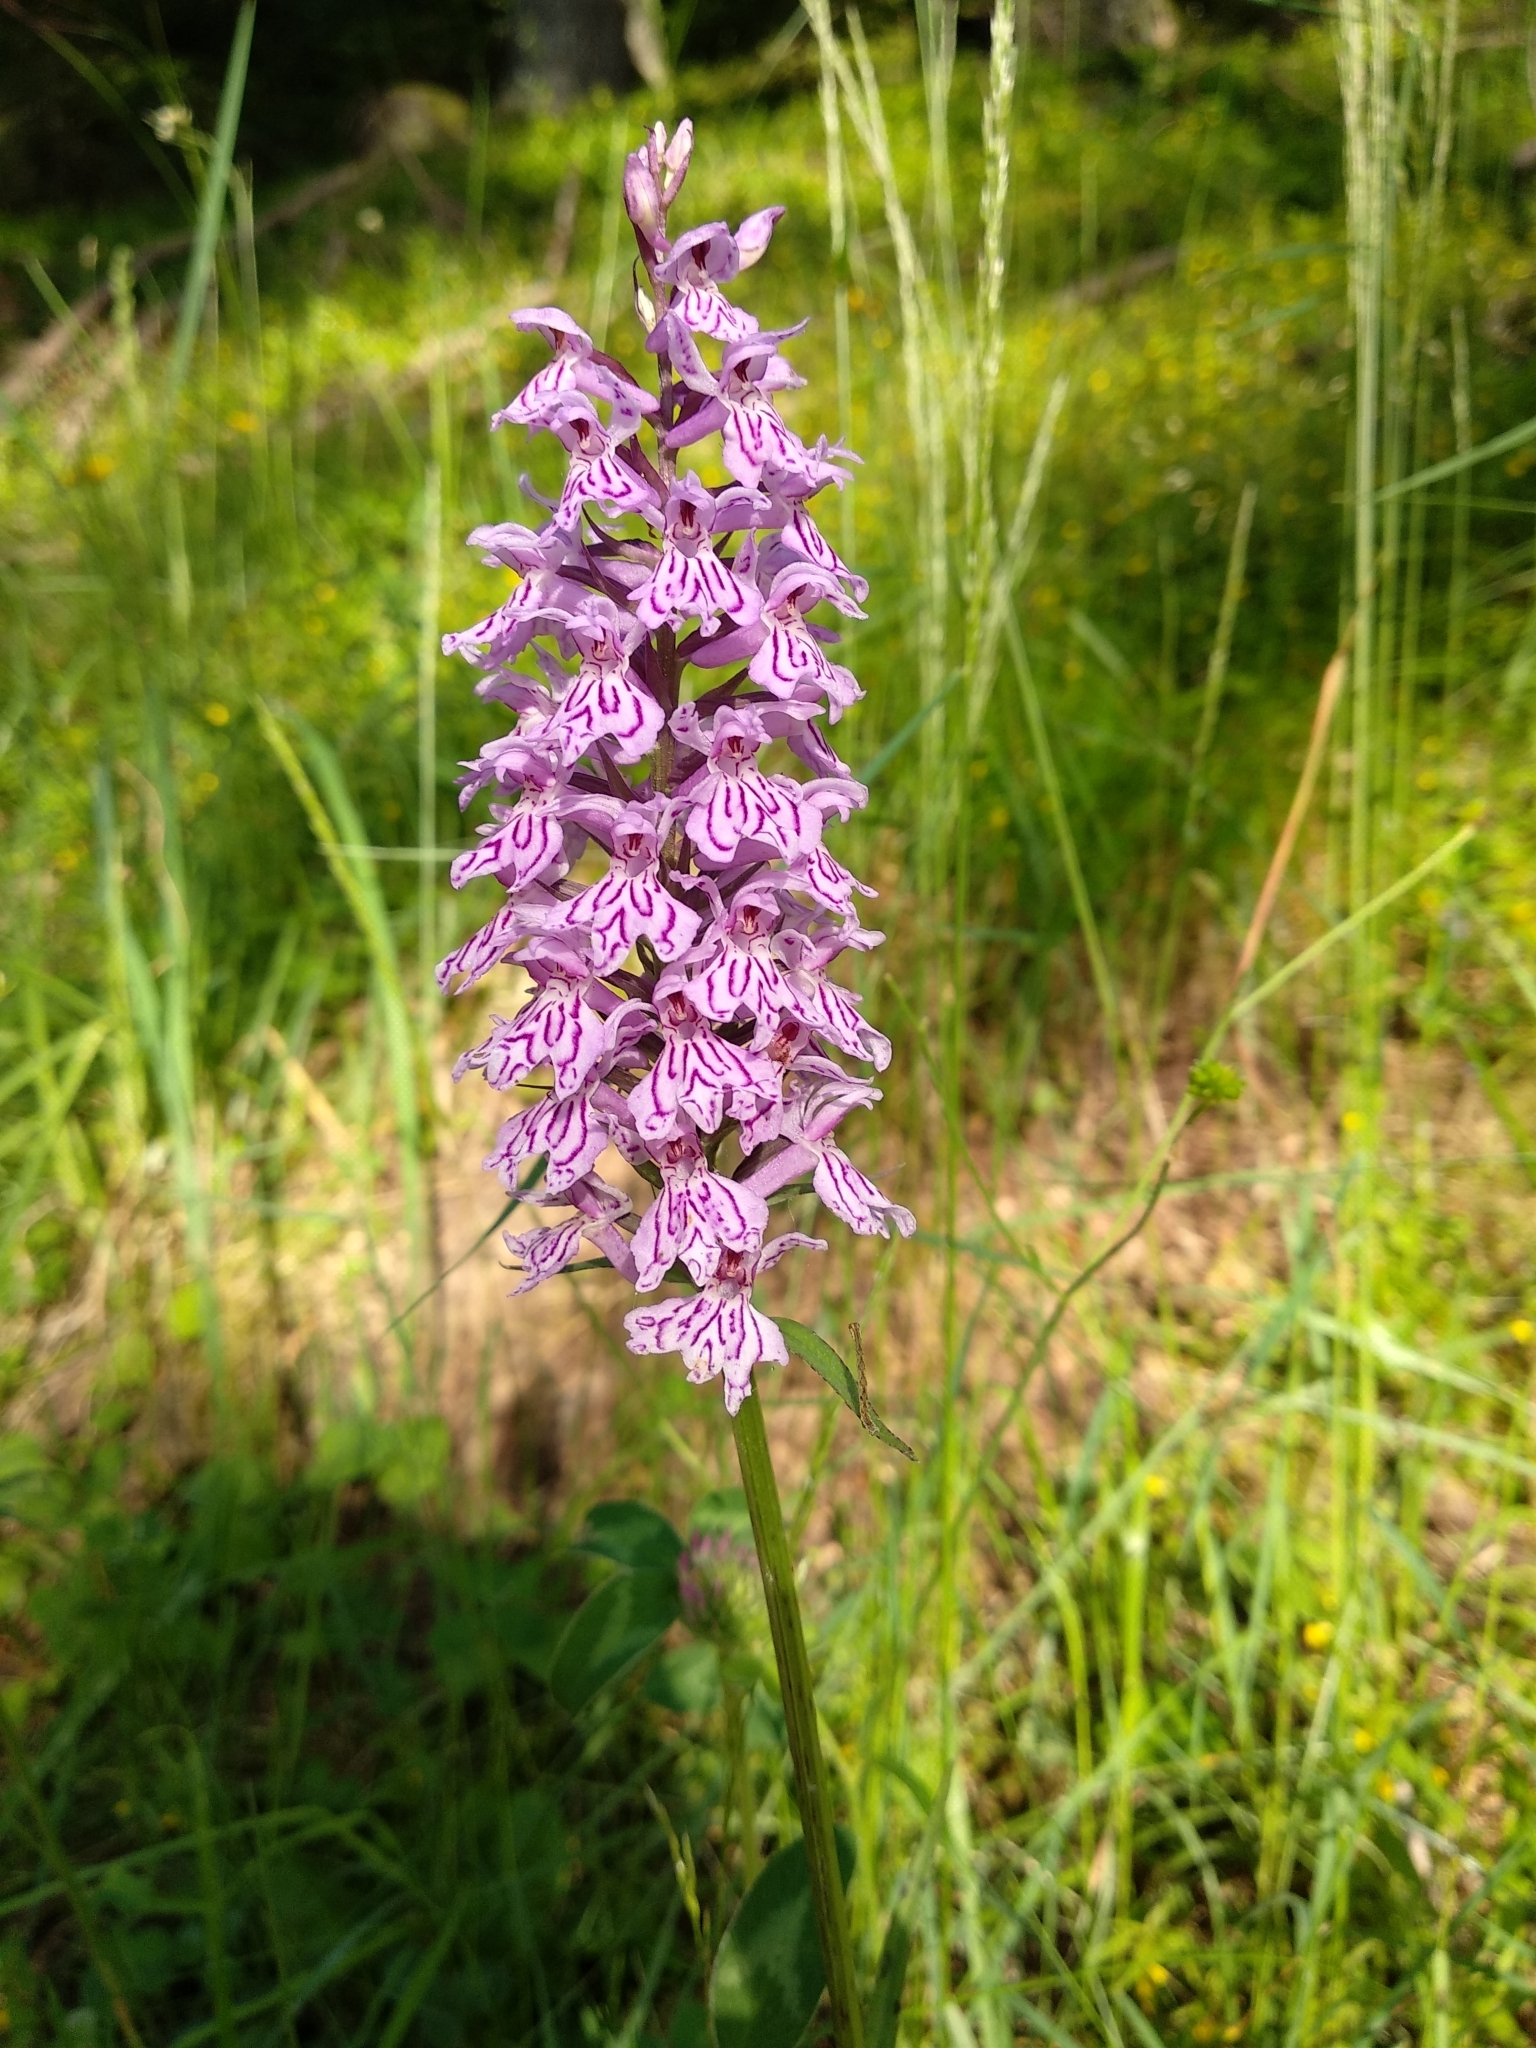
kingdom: Plantae
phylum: Tracheophyta
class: Liliopsida
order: Asparagales
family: Orchidaceae
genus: Dactylorhiza
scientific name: Dactylorhiza maculata
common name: Heath spotted-orchid
